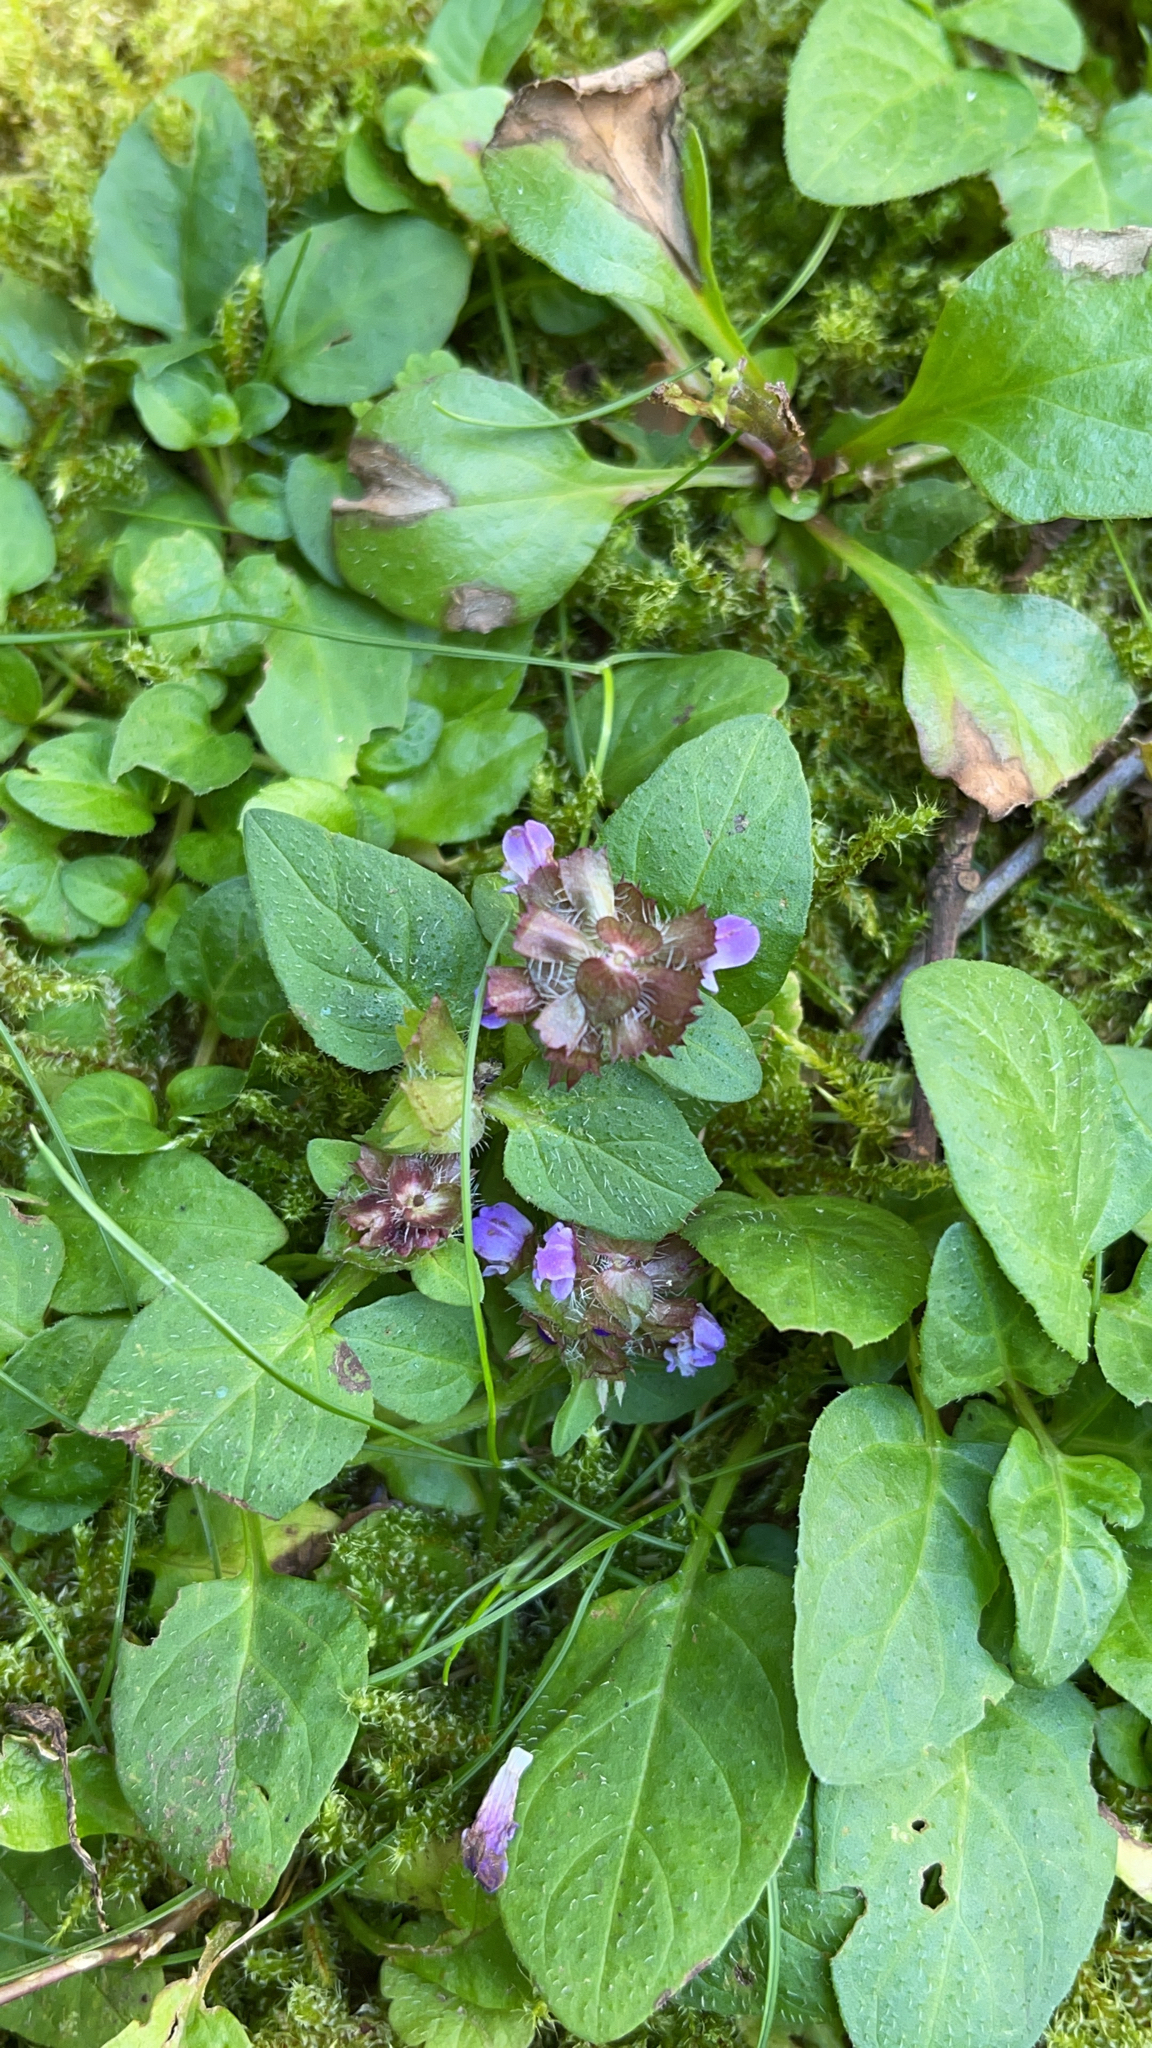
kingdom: Plantae
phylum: Tracheophyta
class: Magnoliopsida
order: Lamiales
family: Lamiaceae
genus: Prunella
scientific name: Prunella vulgaris
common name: Heal-all
